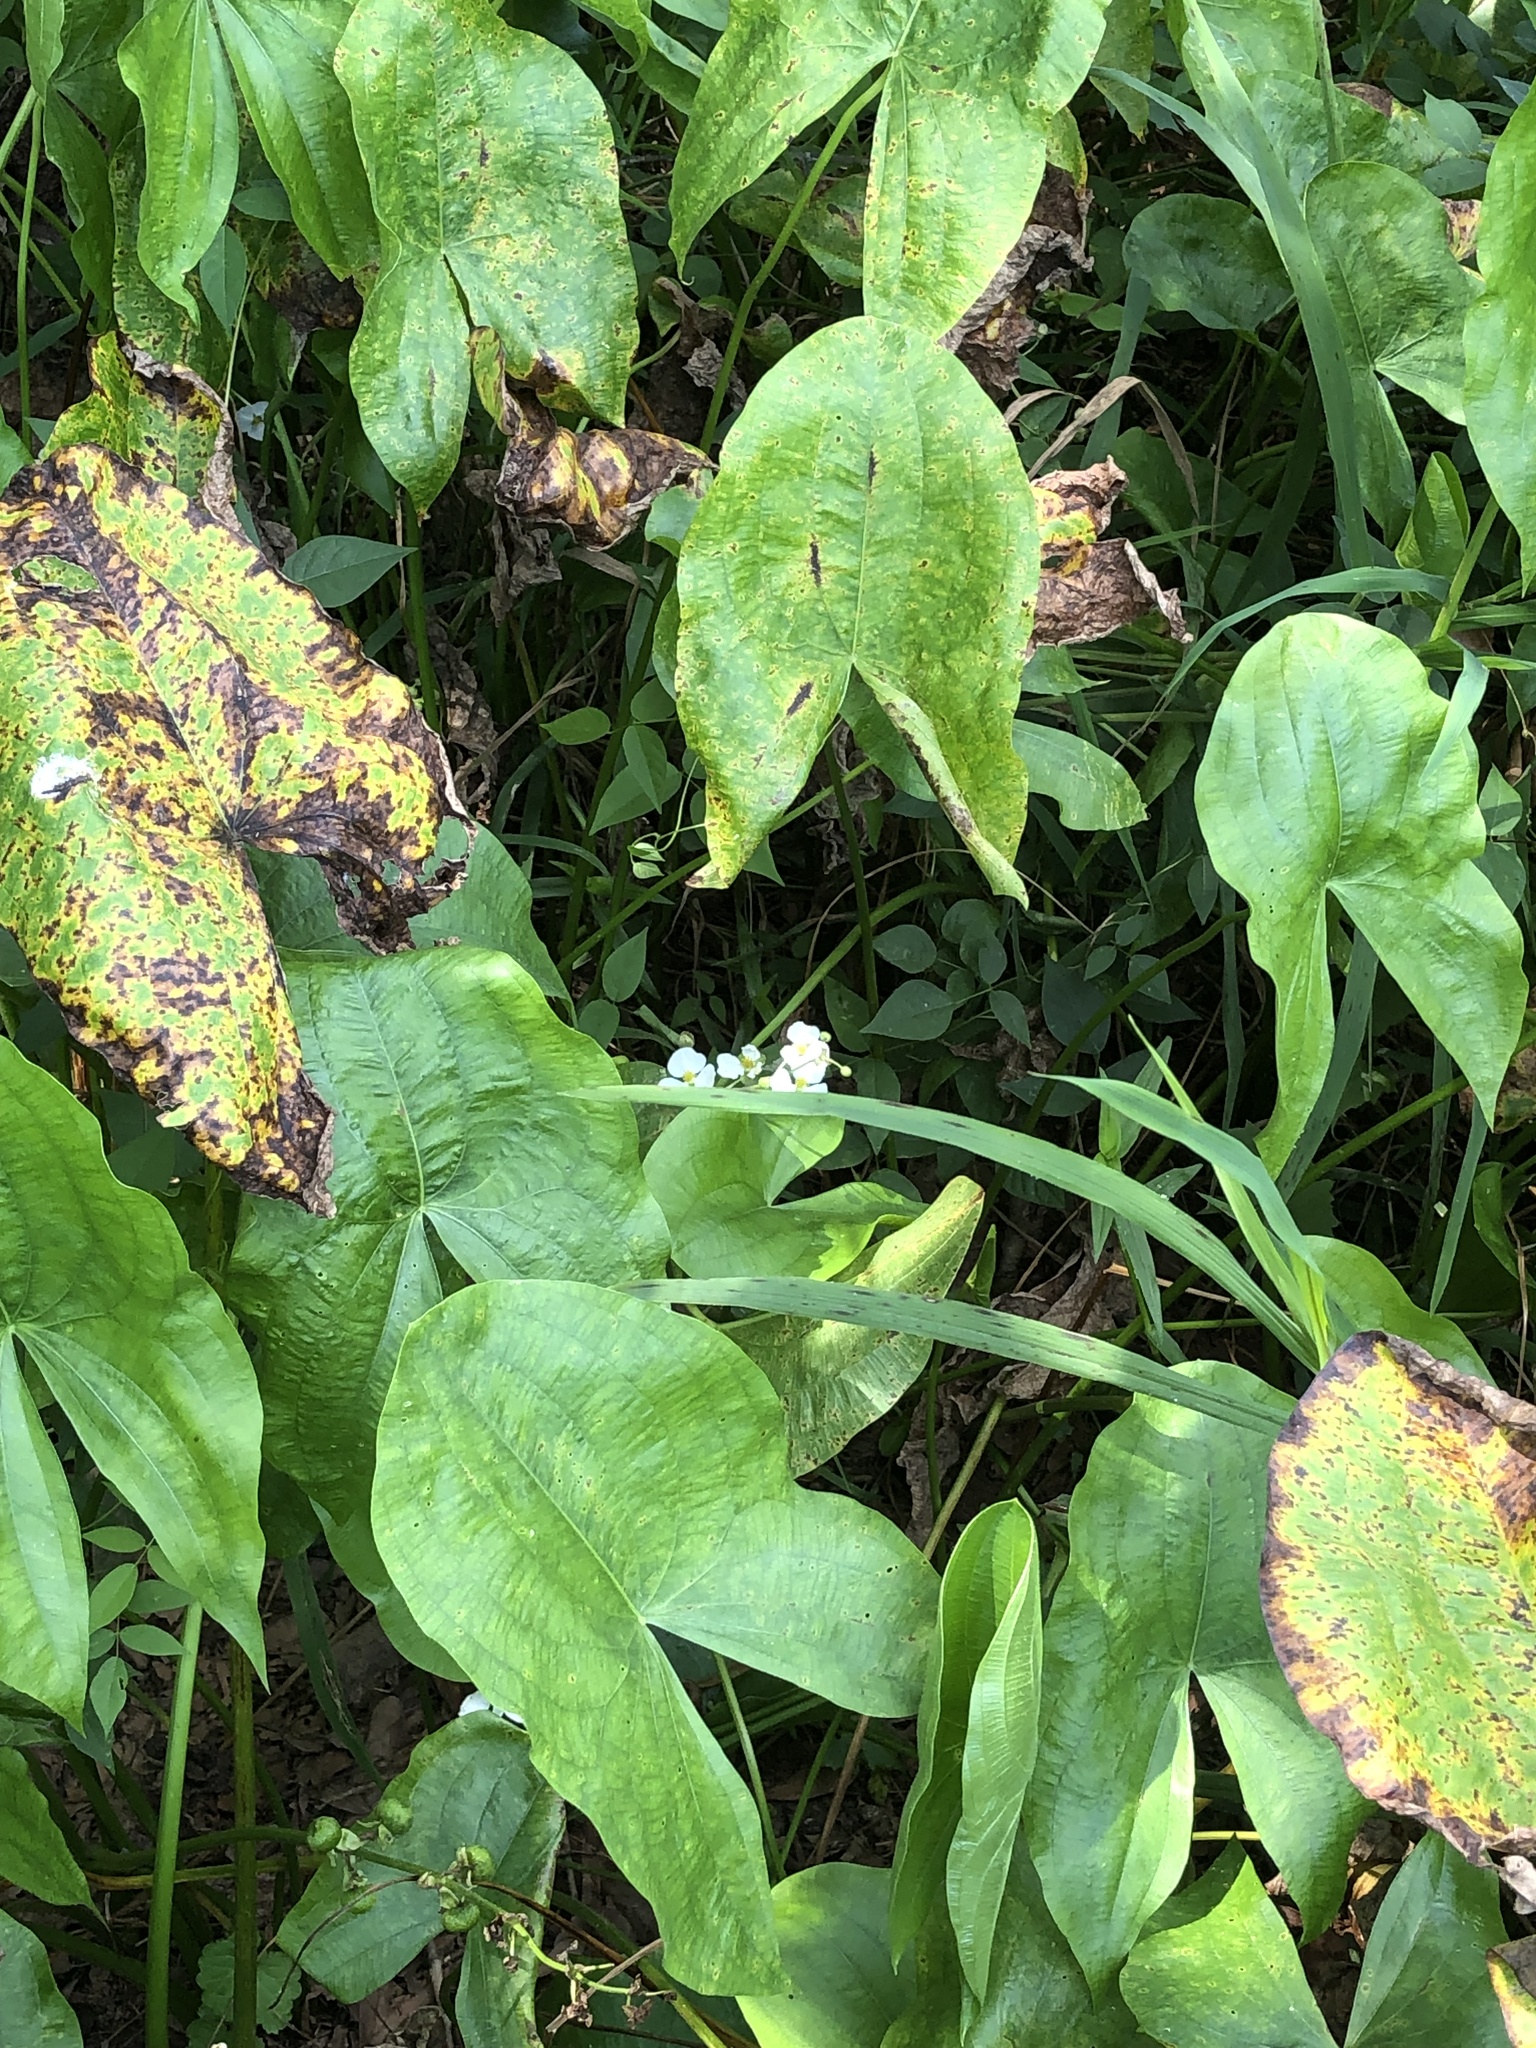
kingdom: Plantae
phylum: Tracheophyta
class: Liliopsida
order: Alismatales
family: Alismataceae
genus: Sagittaria
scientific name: Sagittaria latifolia
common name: Duck-potato
